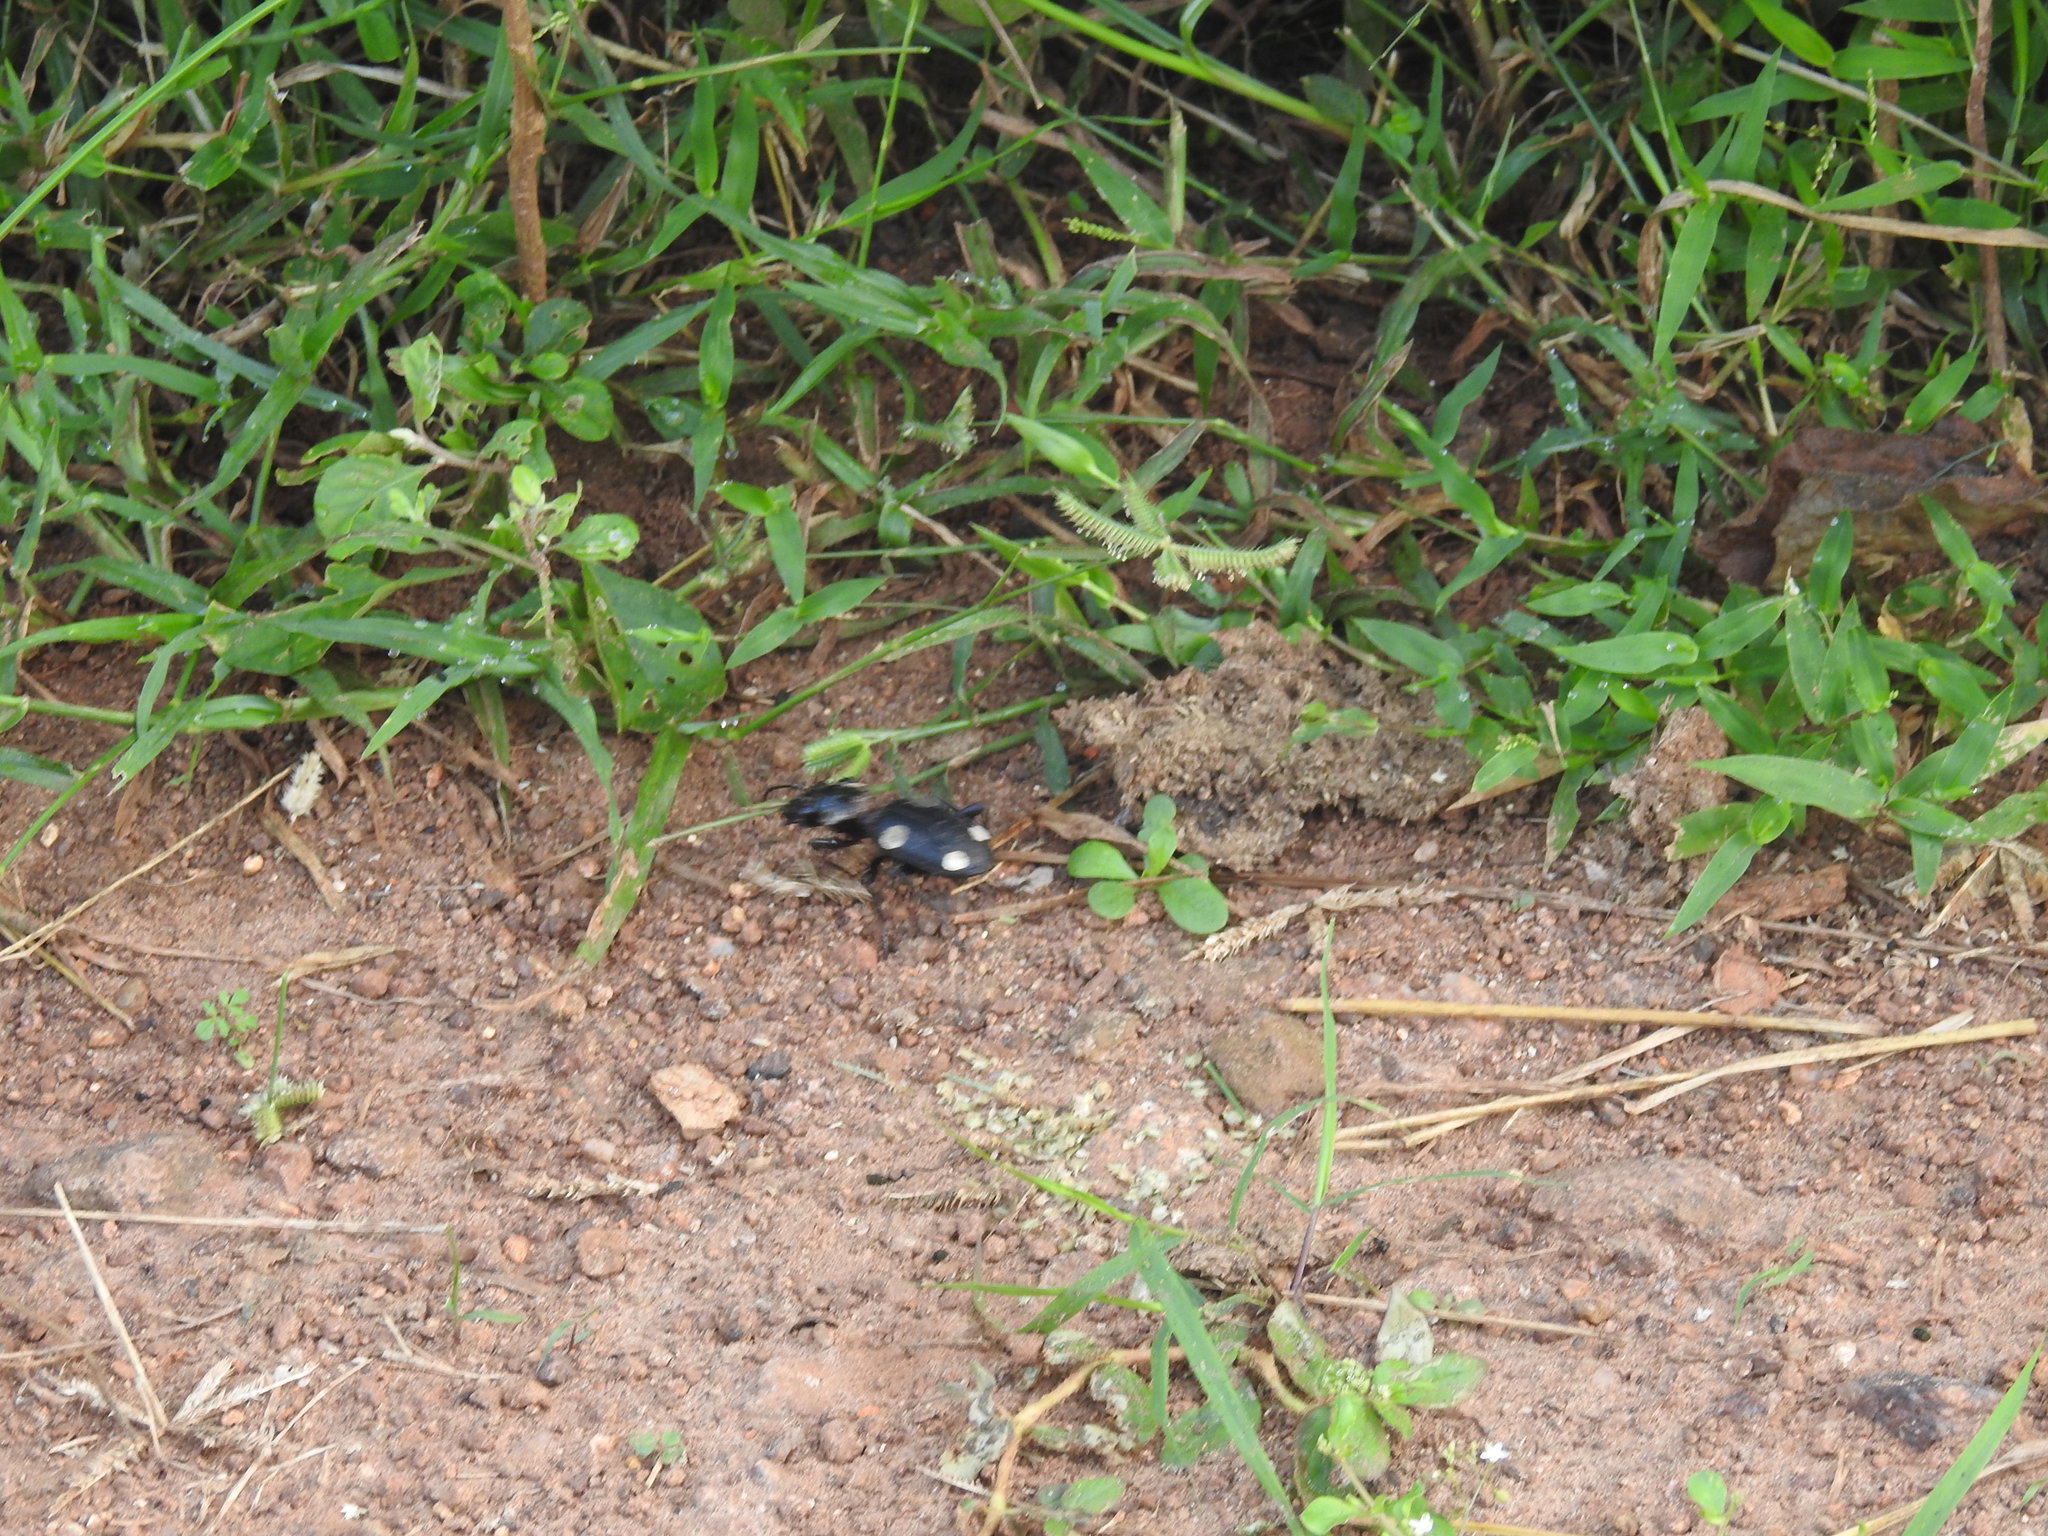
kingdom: Animalia
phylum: Arthropoda
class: Insecta
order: Coleoptera
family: Carabidae
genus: Anthia
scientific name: Anthia sexguttata
